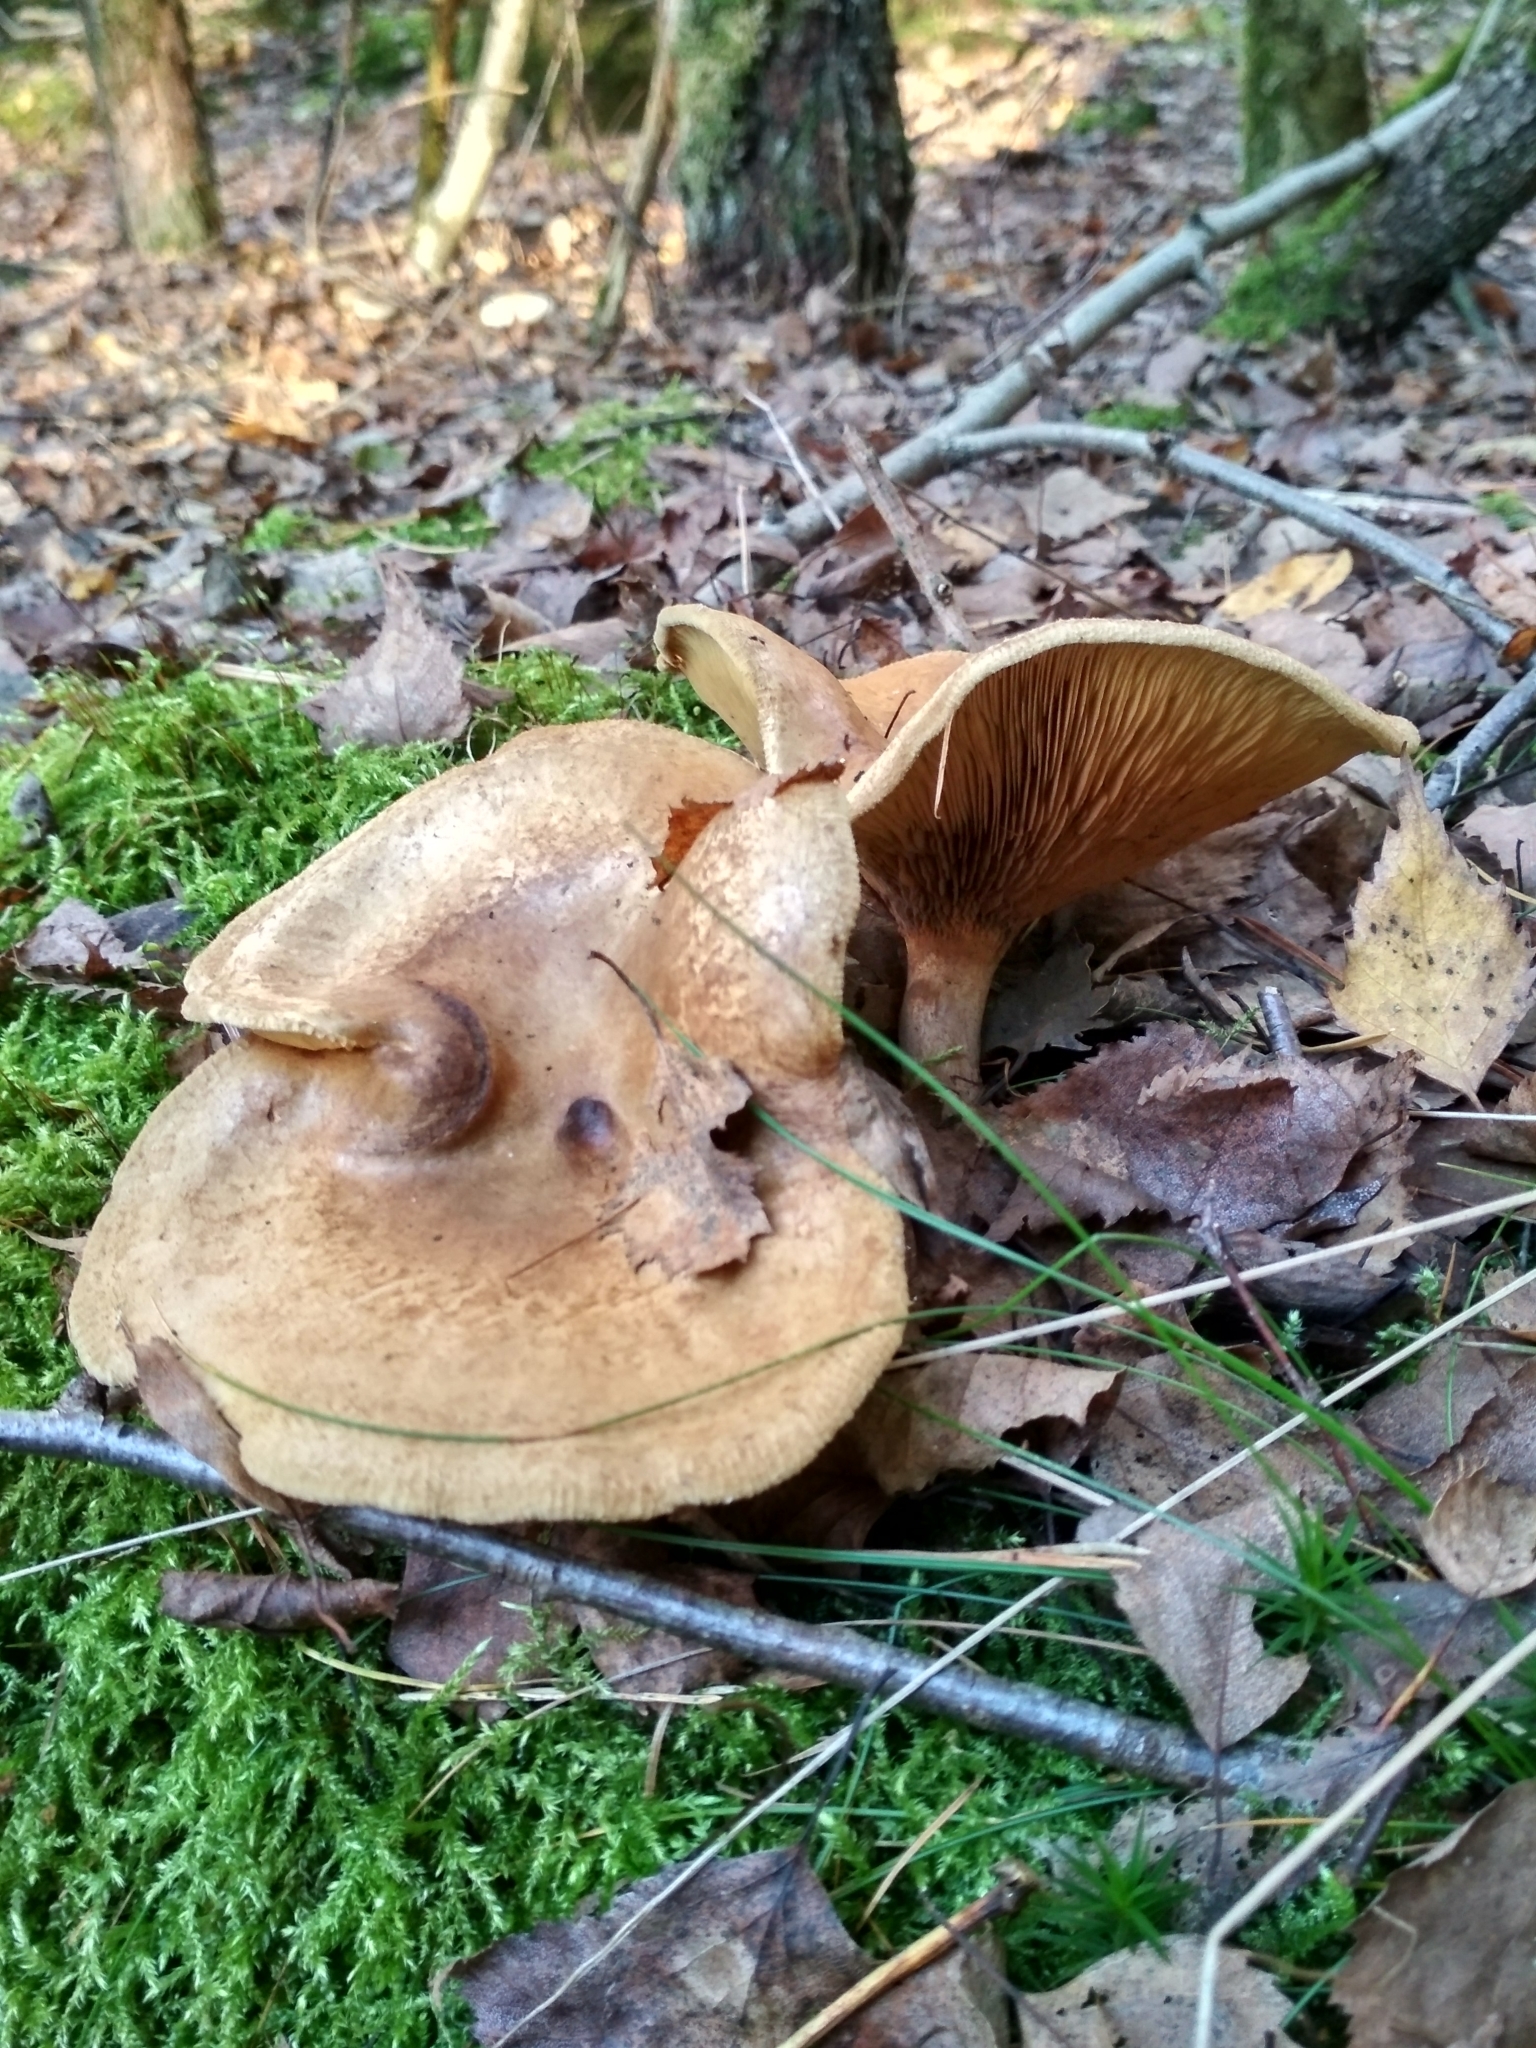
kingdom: Fungi
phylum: Basidiomycota
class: Agaricomycetes
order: Boletales
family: Paxillaceae
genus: Paxillus
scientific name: Paxillus involutus
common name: Brown roll rim
